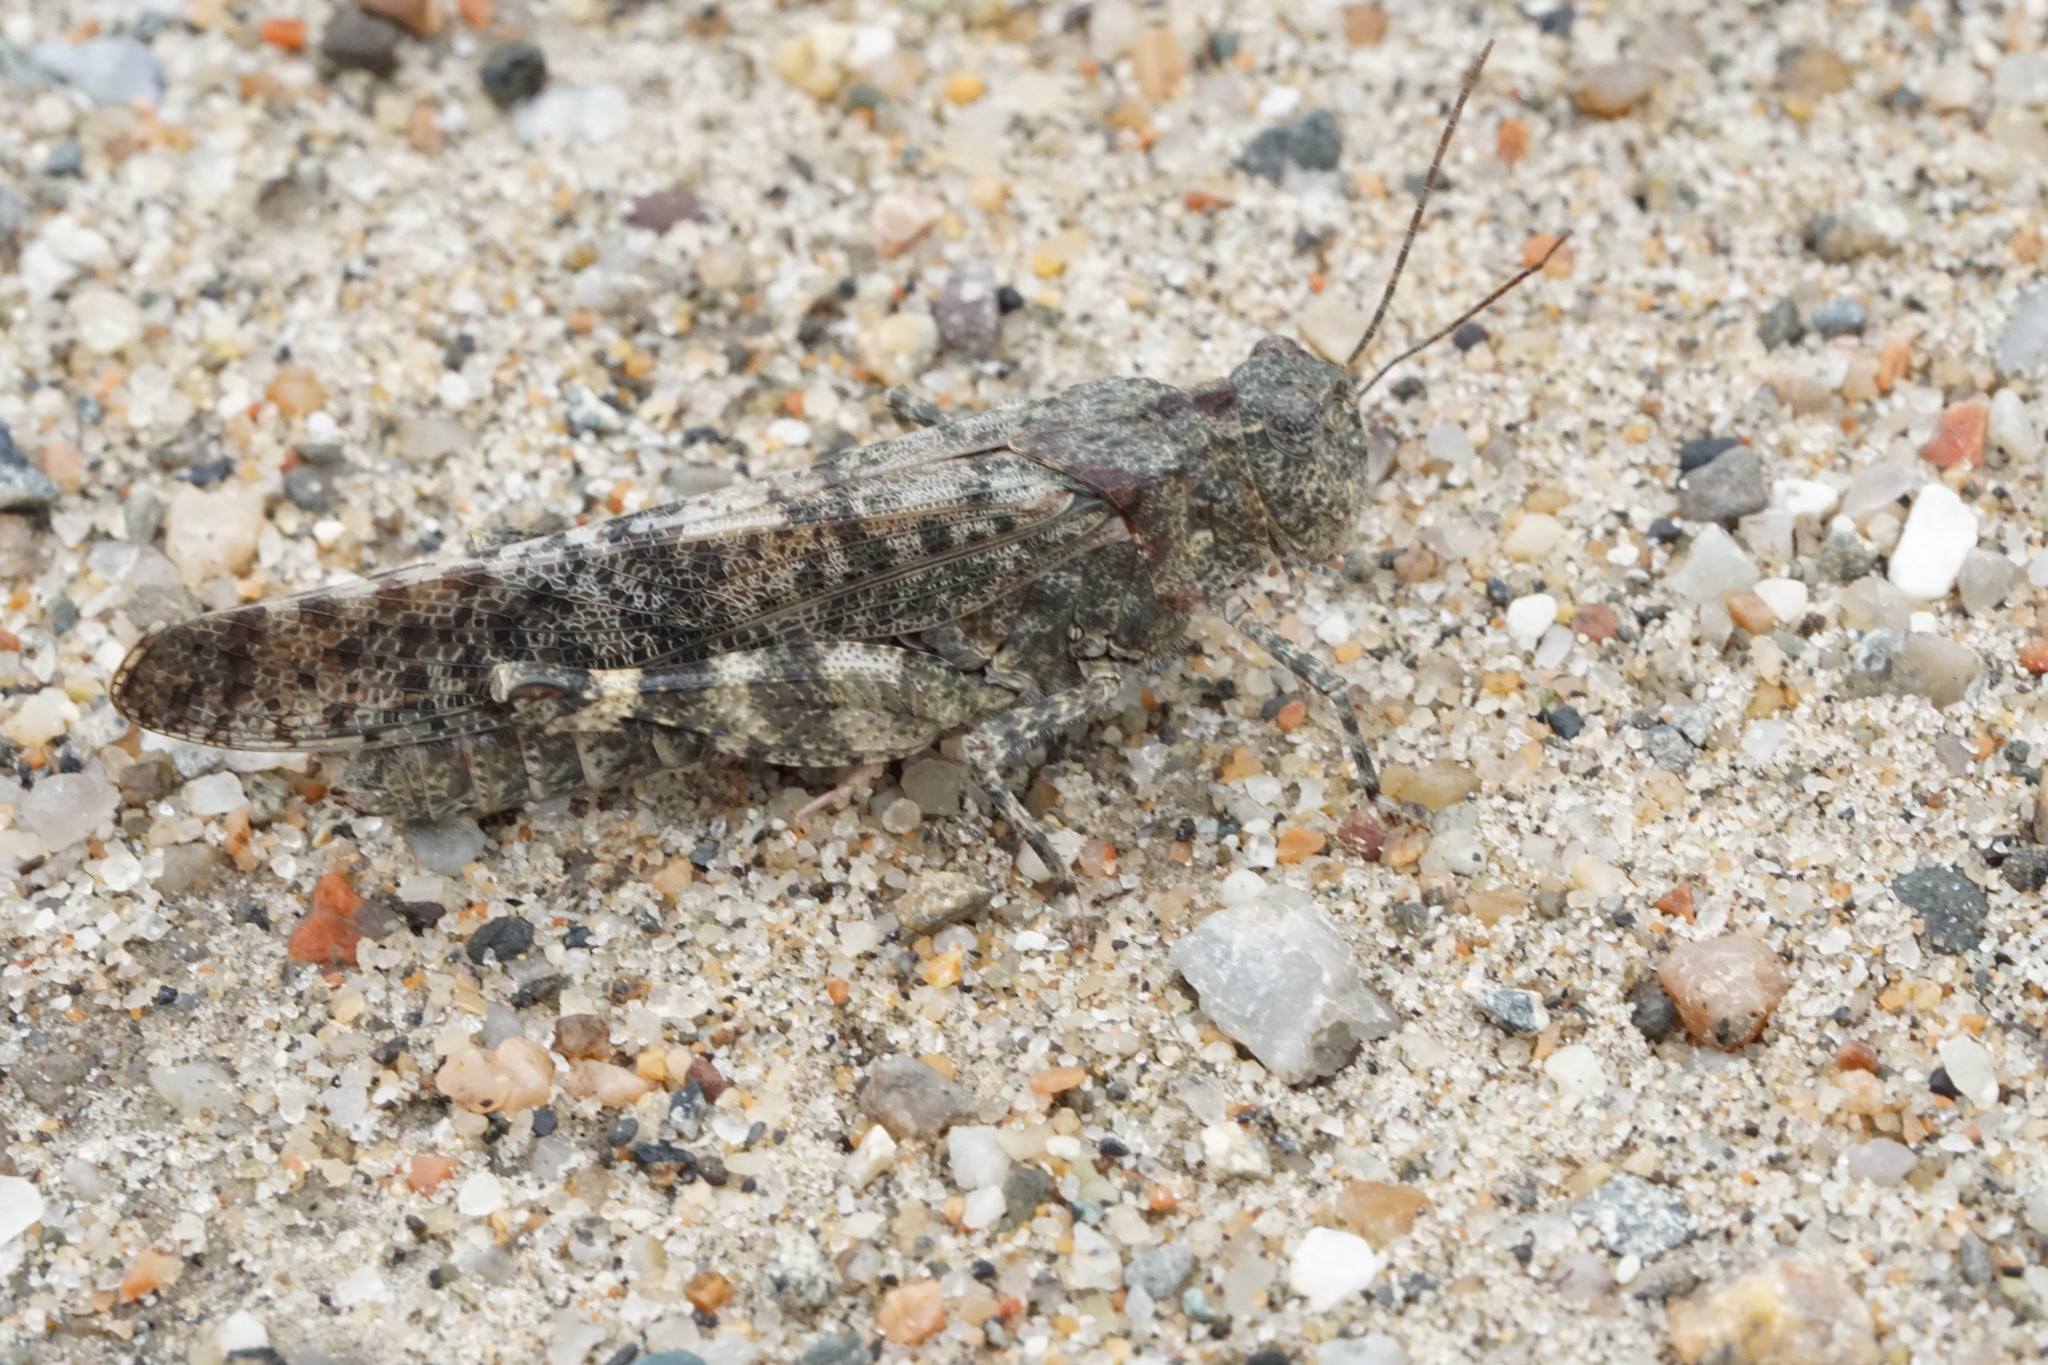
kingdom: Animalia
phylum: Arthropoda
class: Insecta
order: Orthoptera
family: Acrididae
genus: Trimerotropis
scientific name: Trimerotropis verruculata
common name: Crackling forest grasshopper
